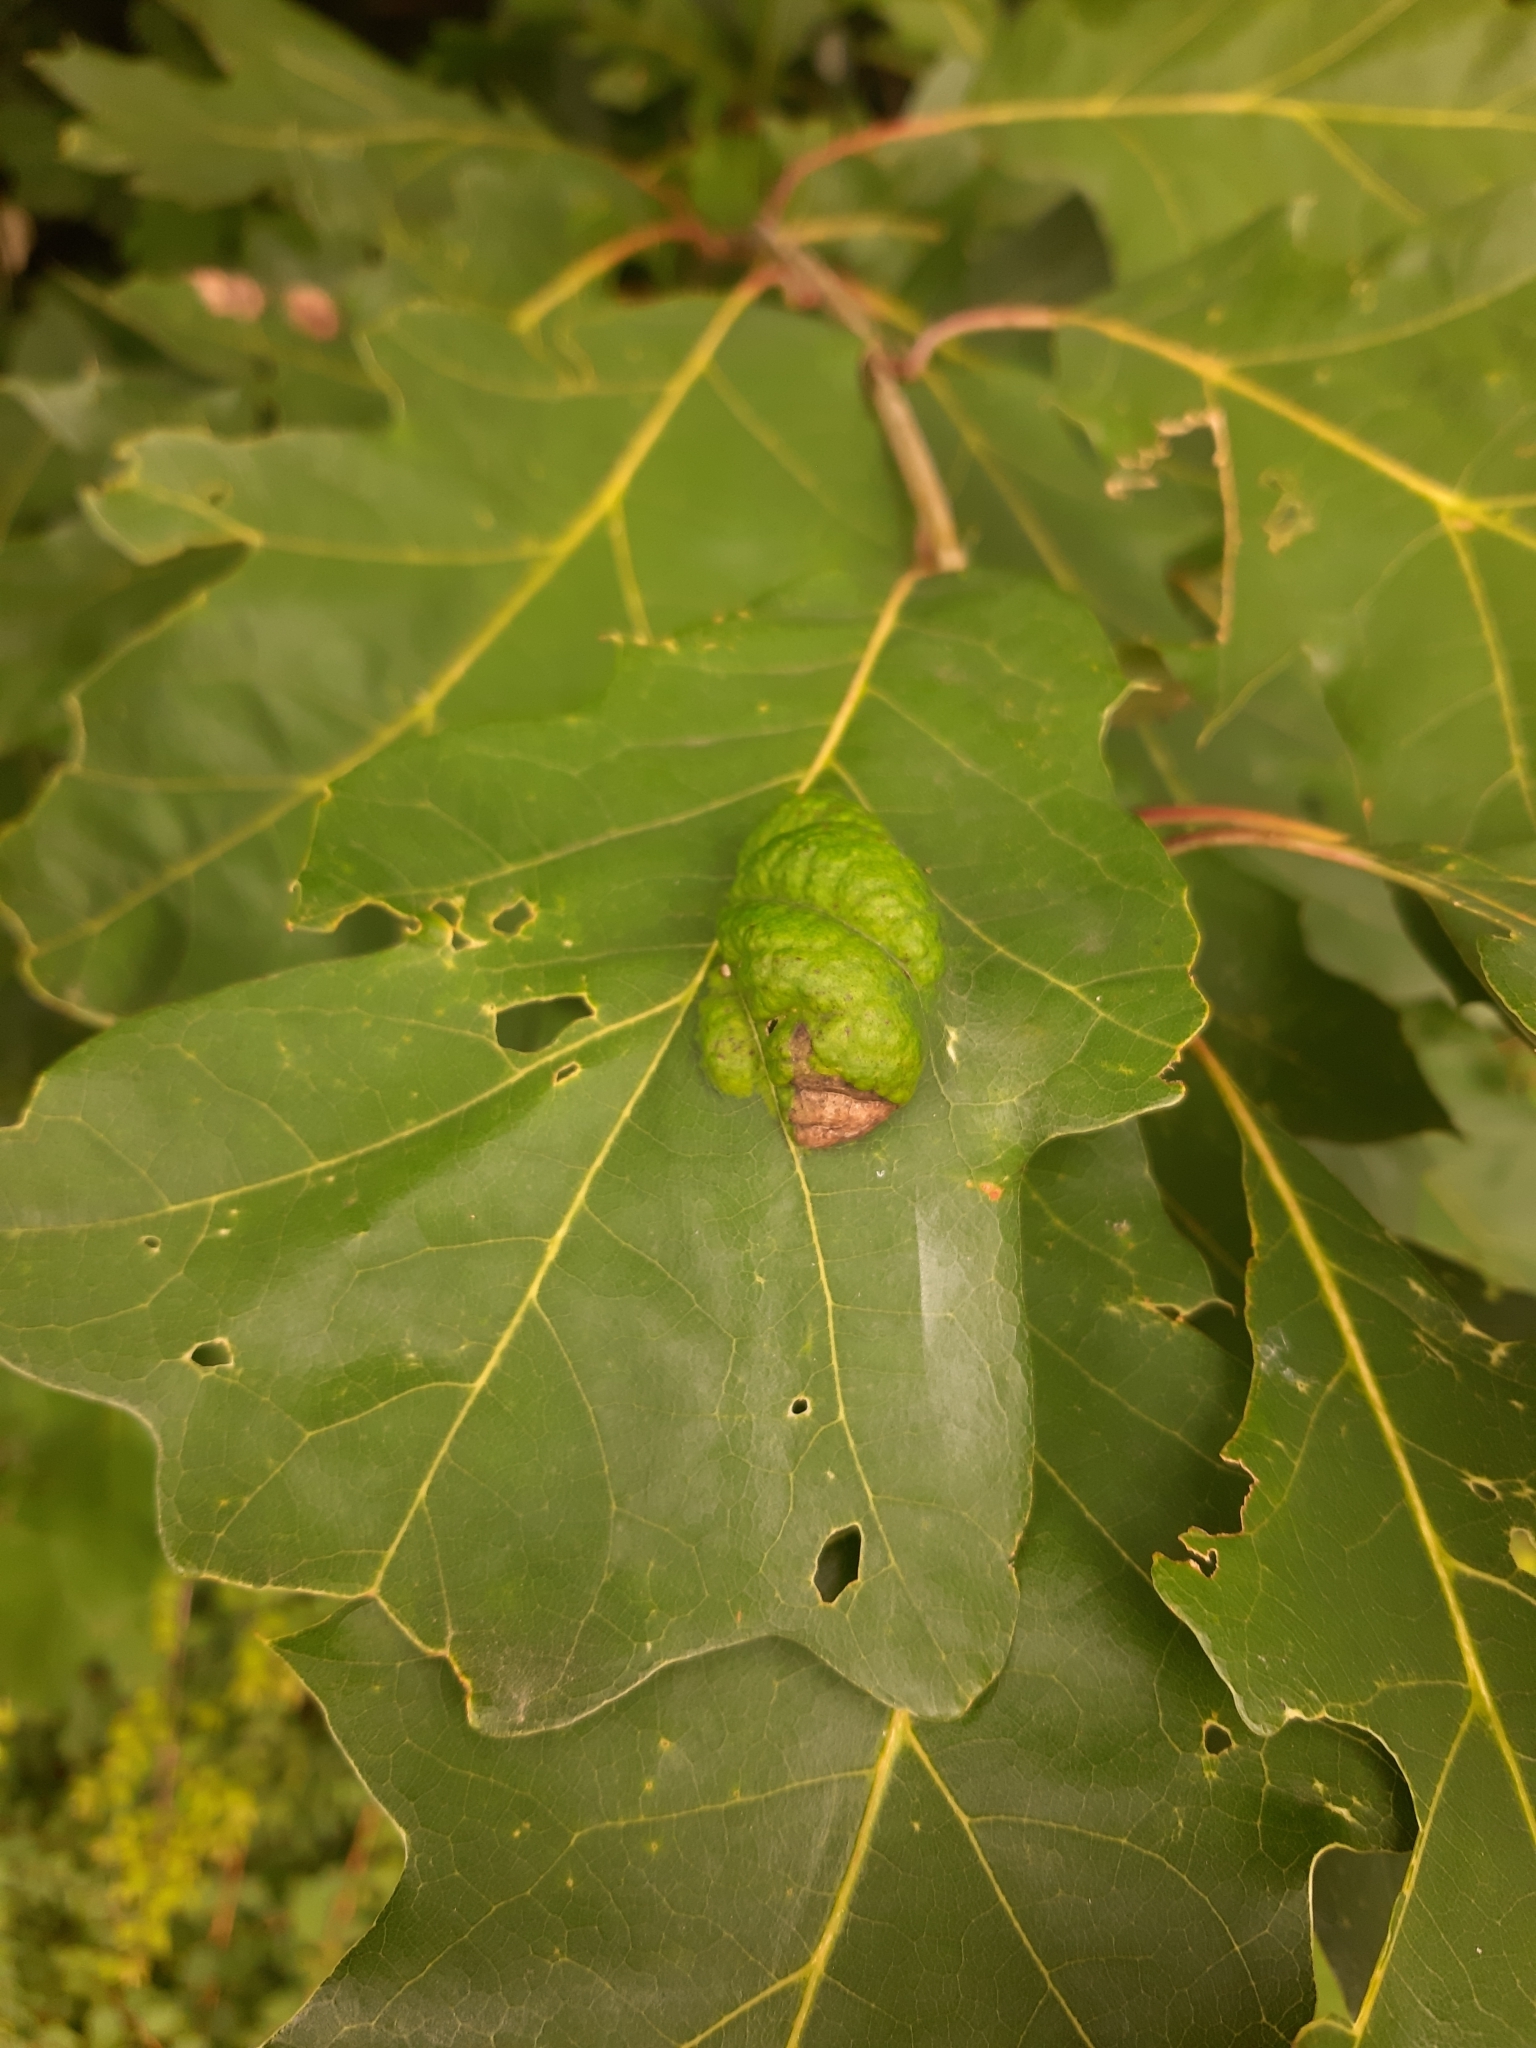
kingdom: Fungi
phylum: Ascomycota
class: Taphrinomycetes
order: Taphrinales
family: Taphrinaceae
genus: Taphrina
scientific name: Taphrina caerulescens
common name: Oak leaf blister
